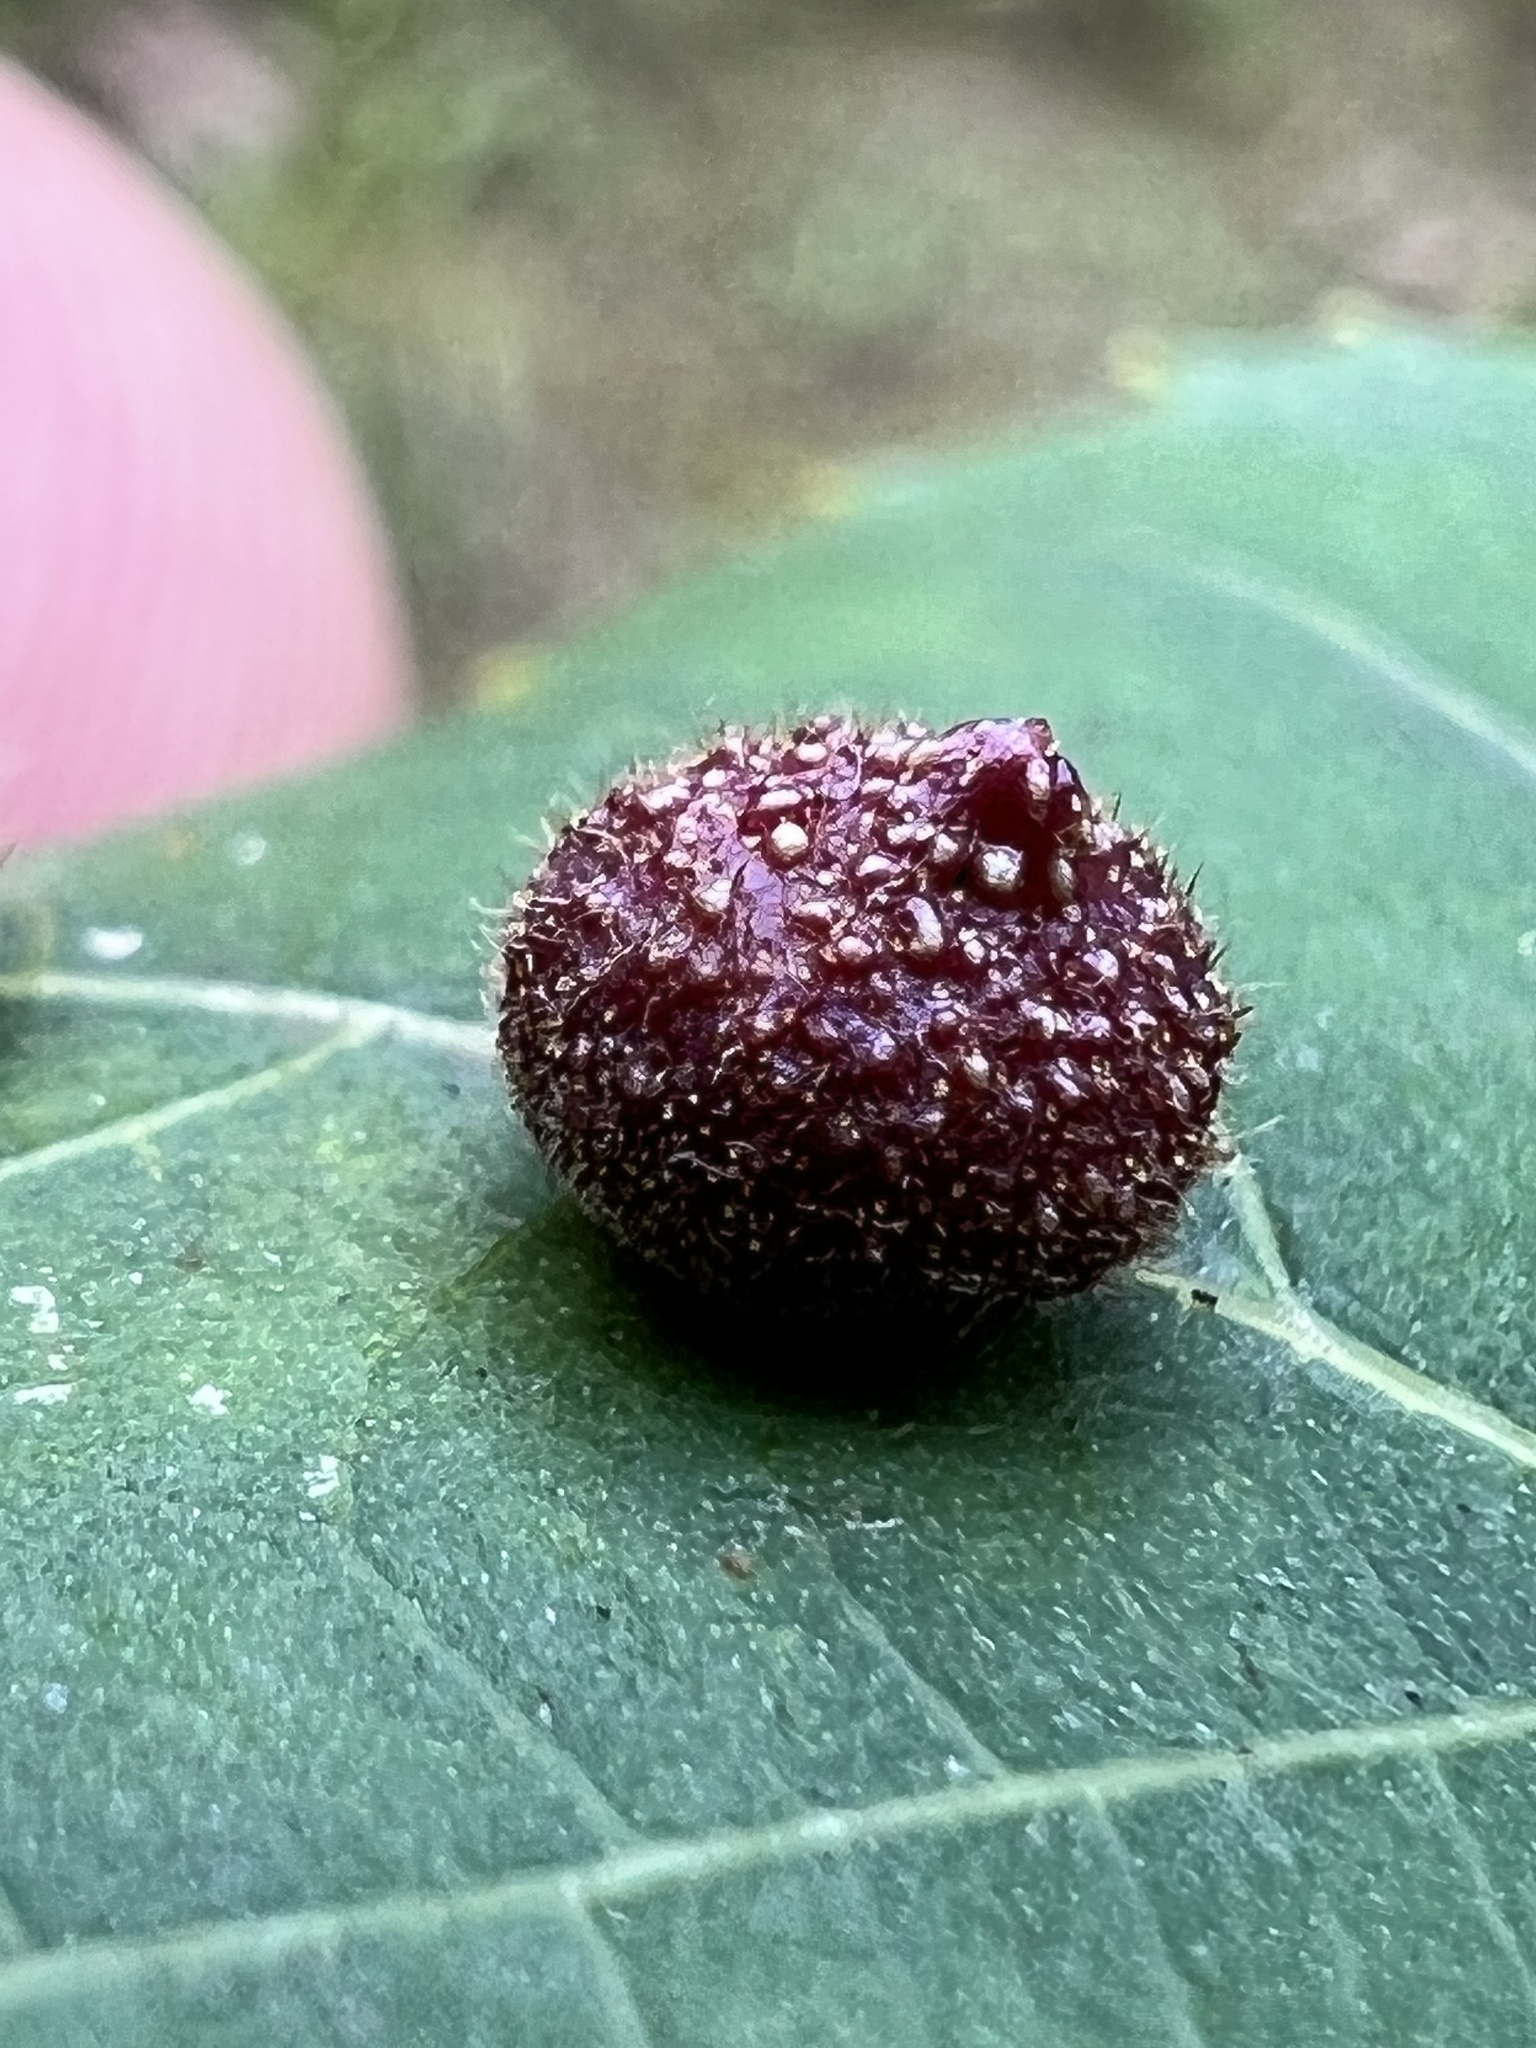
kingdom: Animalia
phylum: Arthropoda
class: Insecta
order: Diptera
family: Cecidomyiidae
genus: Caryomyia
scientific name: Caryomyia turbanella
